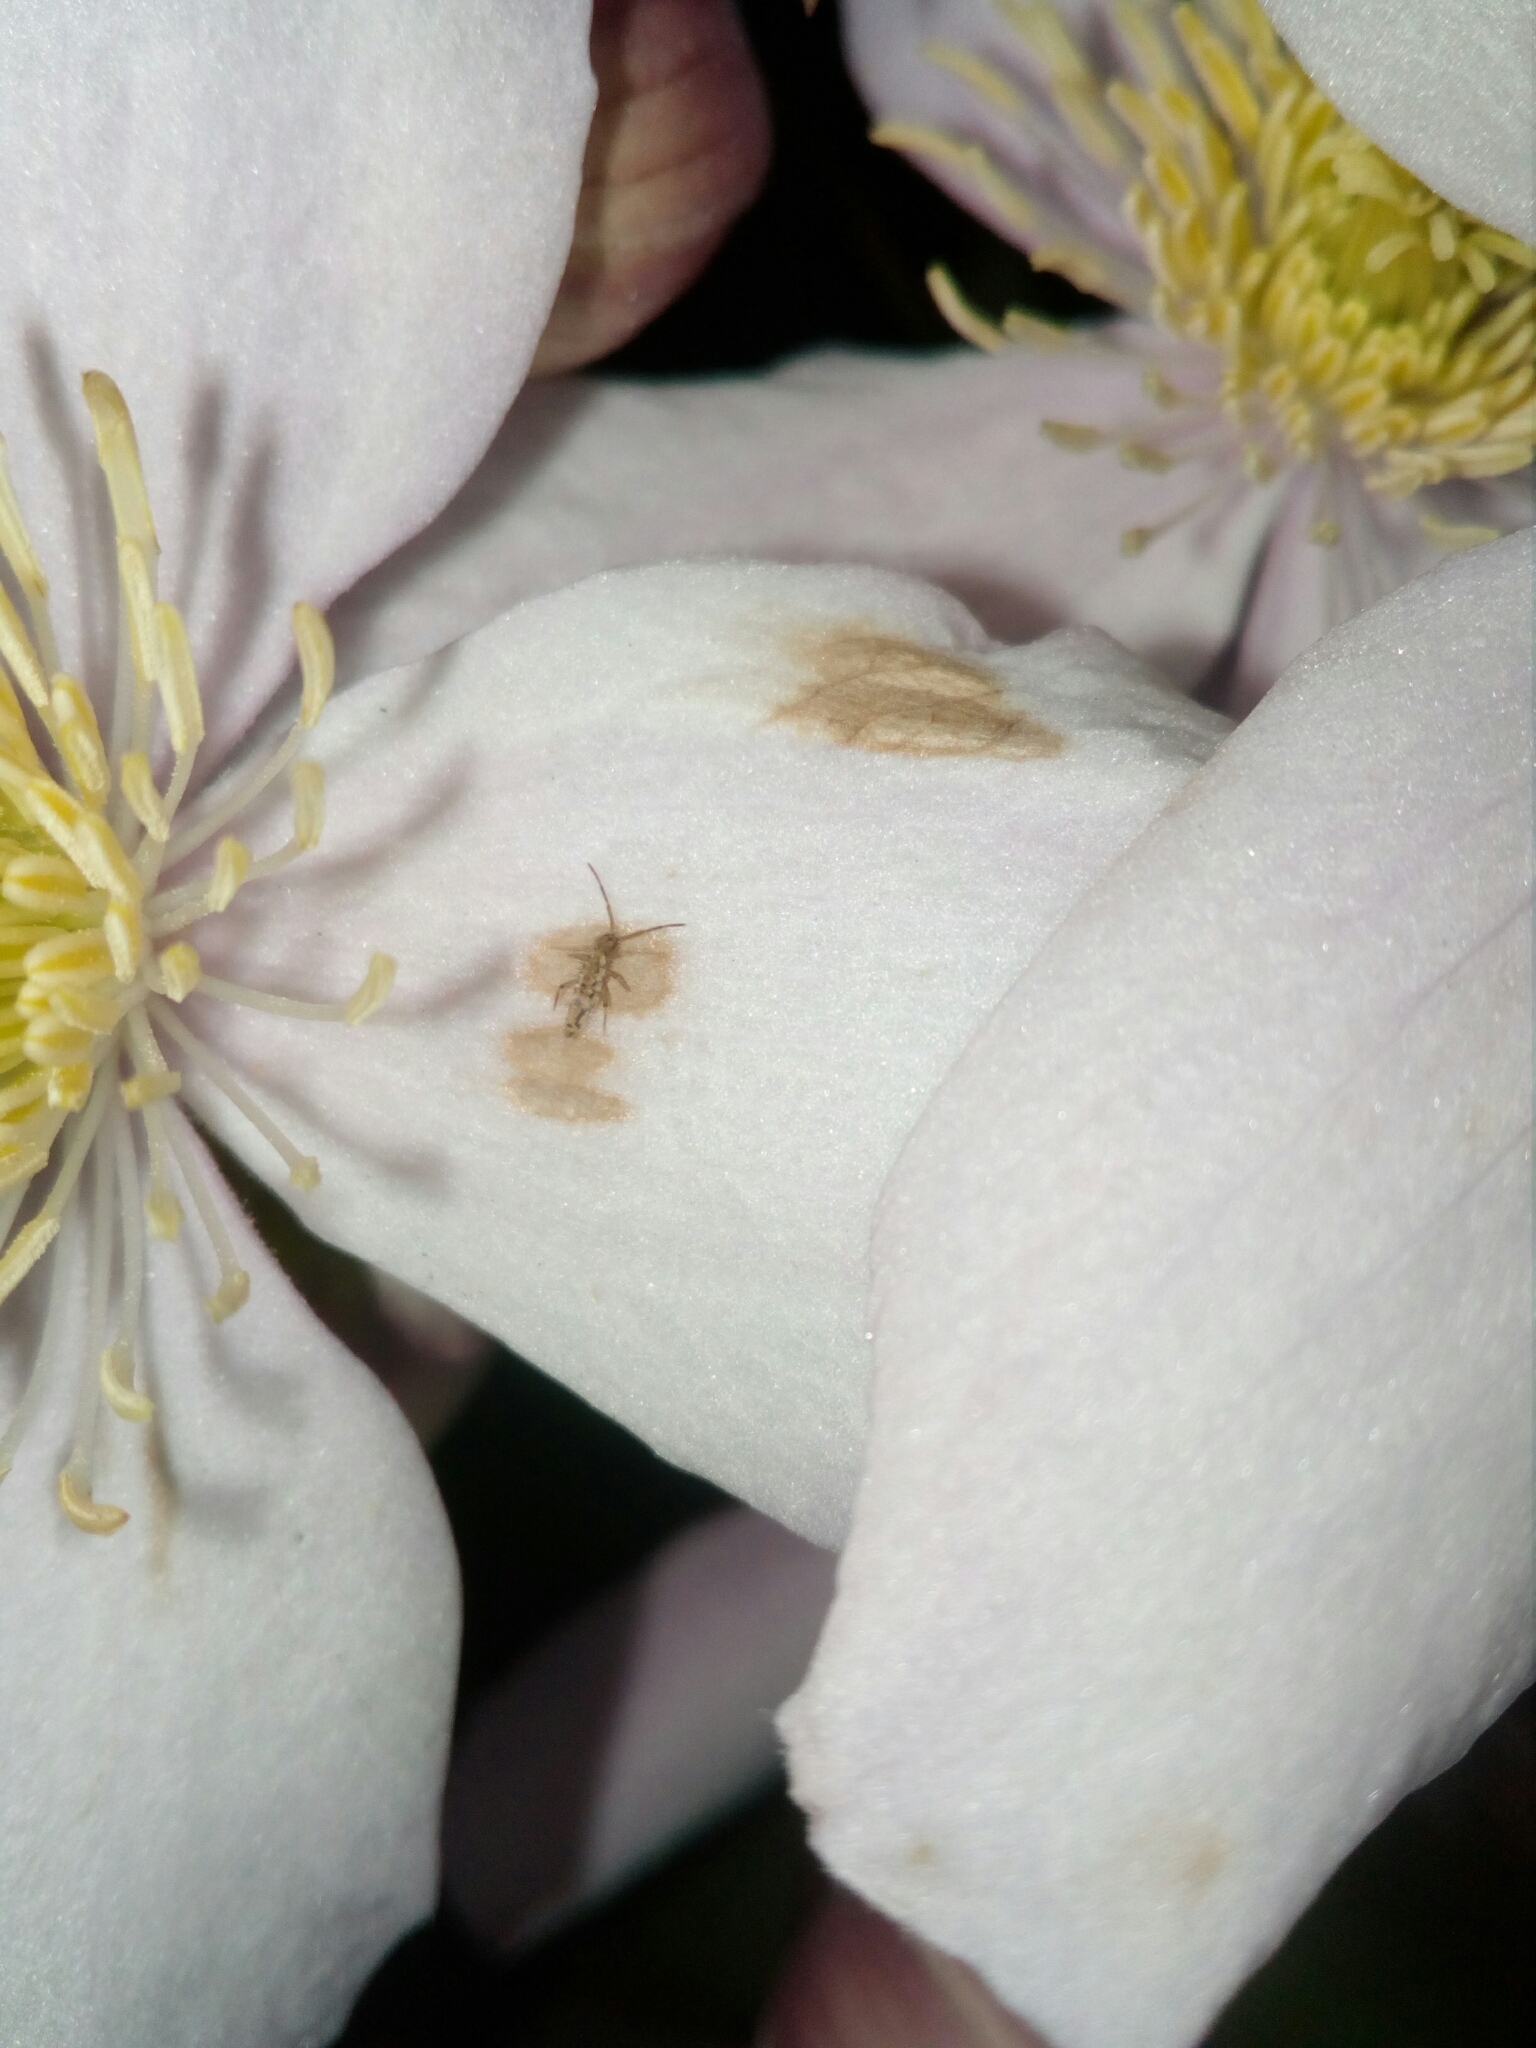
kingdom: Animalia
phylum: Arthropoda
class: Collembola
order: Entomobryomorpha
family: Entomobryidae
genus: Entomobrya
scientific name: Entomobrya intermedia
